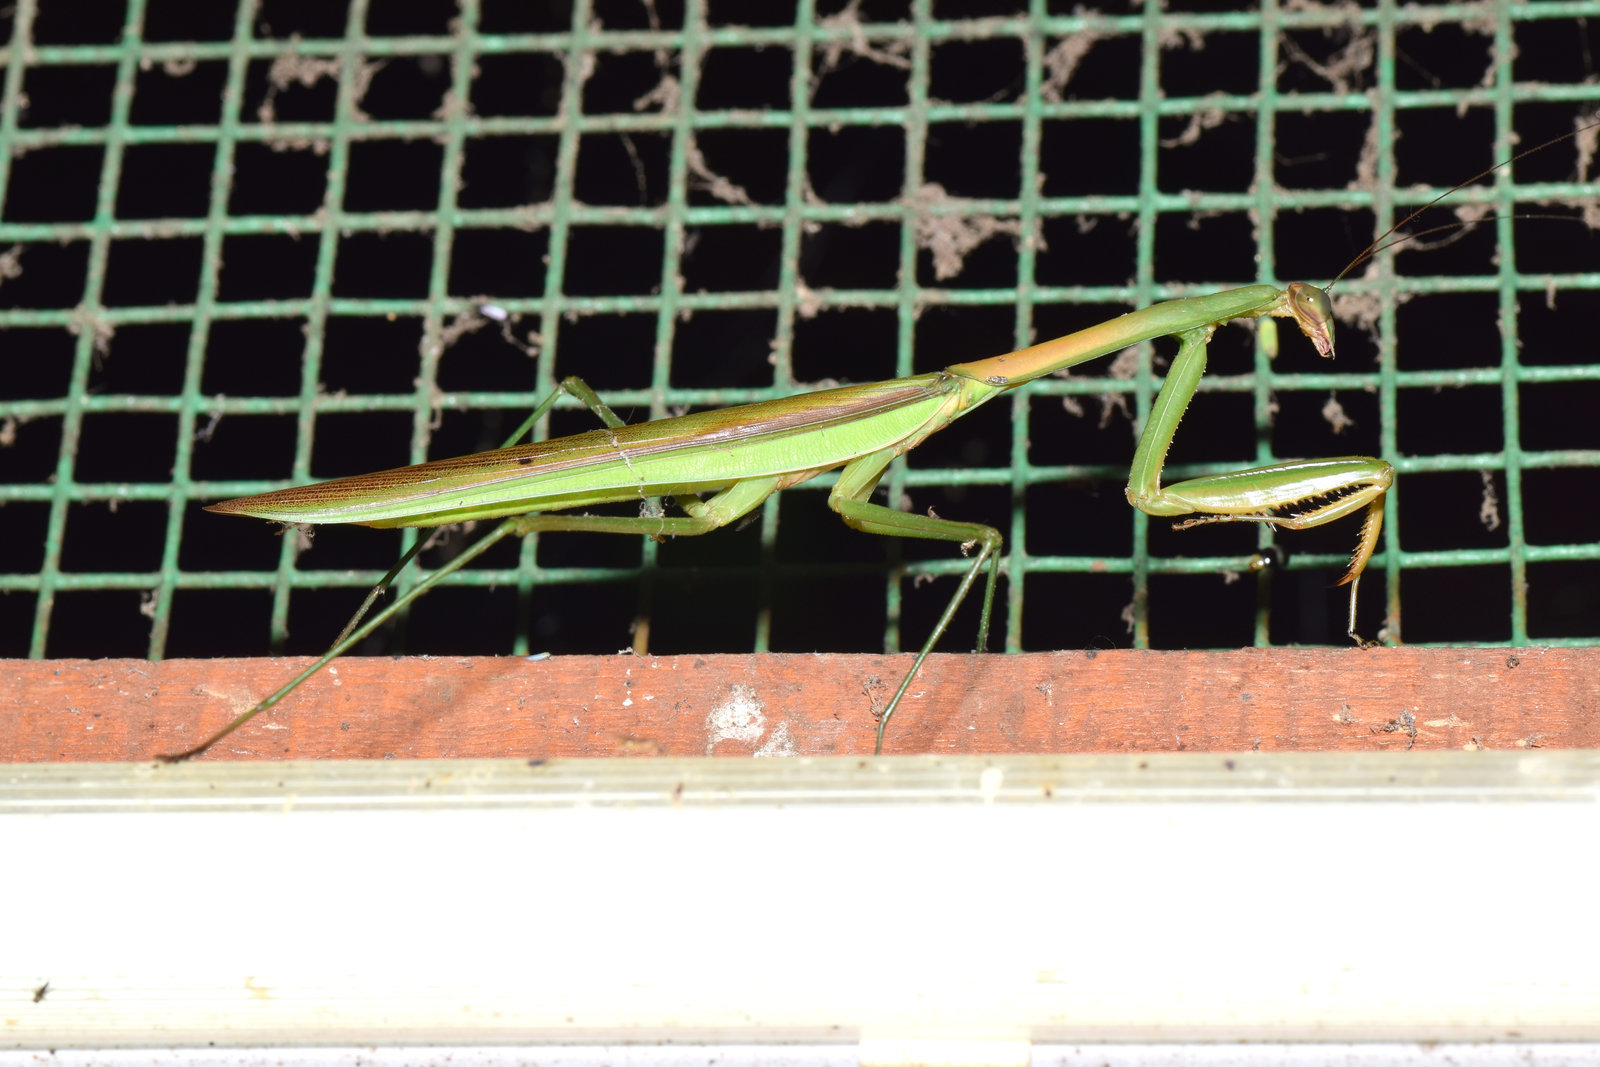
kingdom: Animalia
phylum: Arthropoda
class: Insecta
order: Mantodea
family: Mantidae
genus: Tenodera
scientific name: Tenodera sinensis
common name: Chinese mantis
